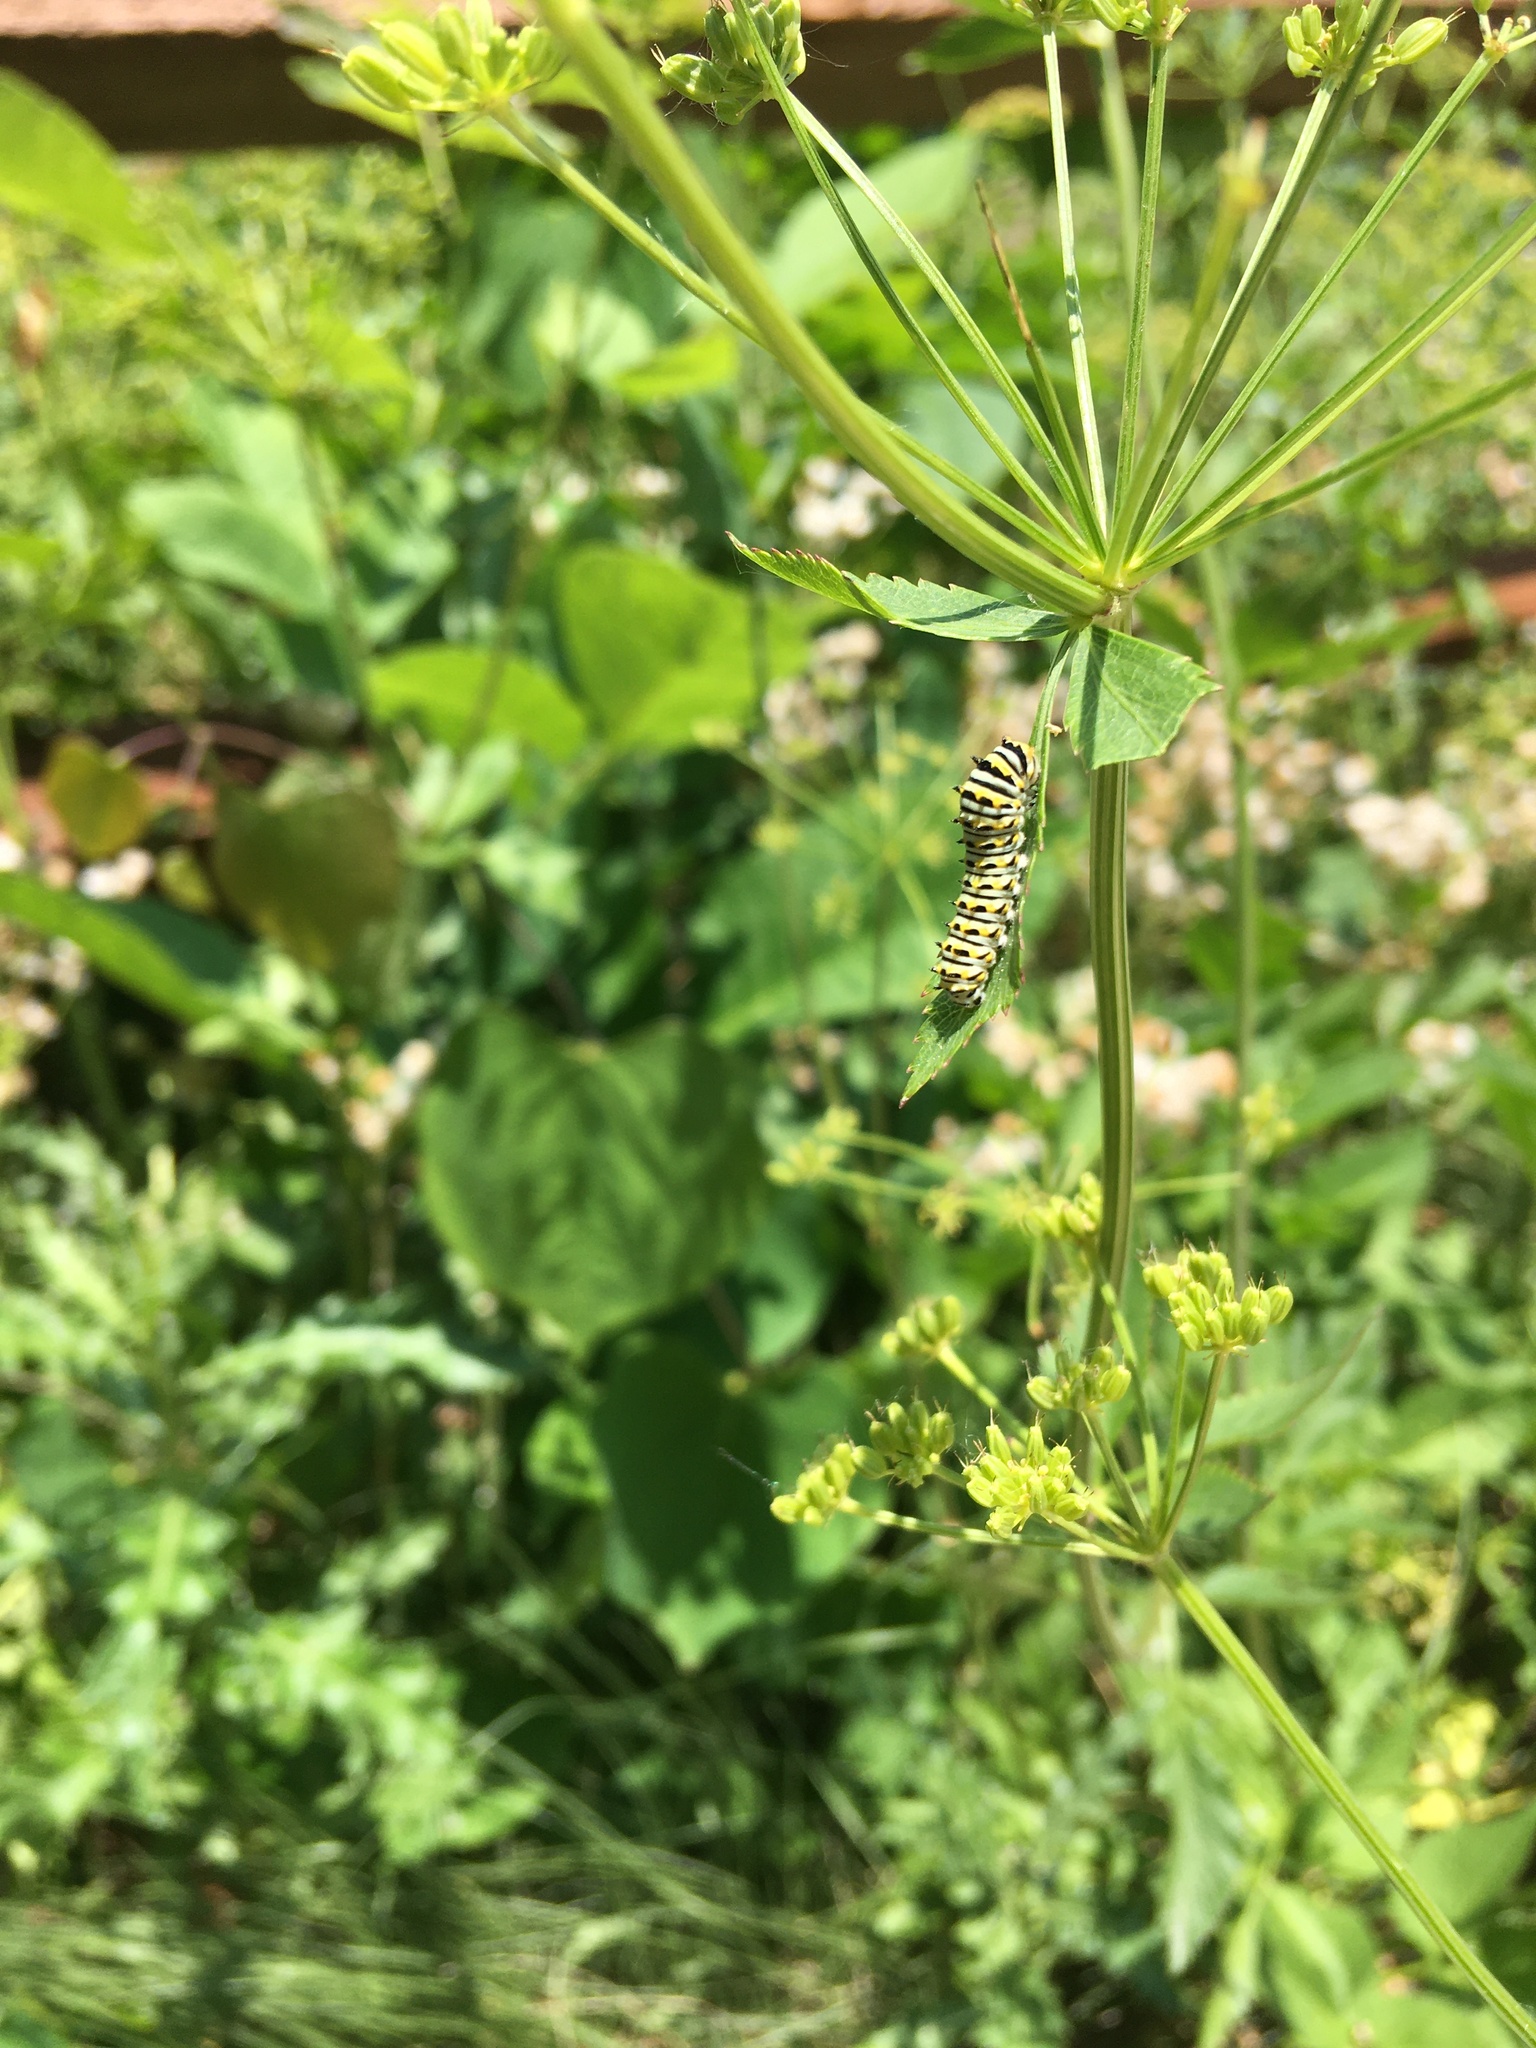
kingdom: Animalia
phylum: Arthropoda
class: Insecta
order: Lepidoptera
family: Papilionidae
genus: Papilio
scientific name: Papilio polyxenes
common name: Black swallowtail
